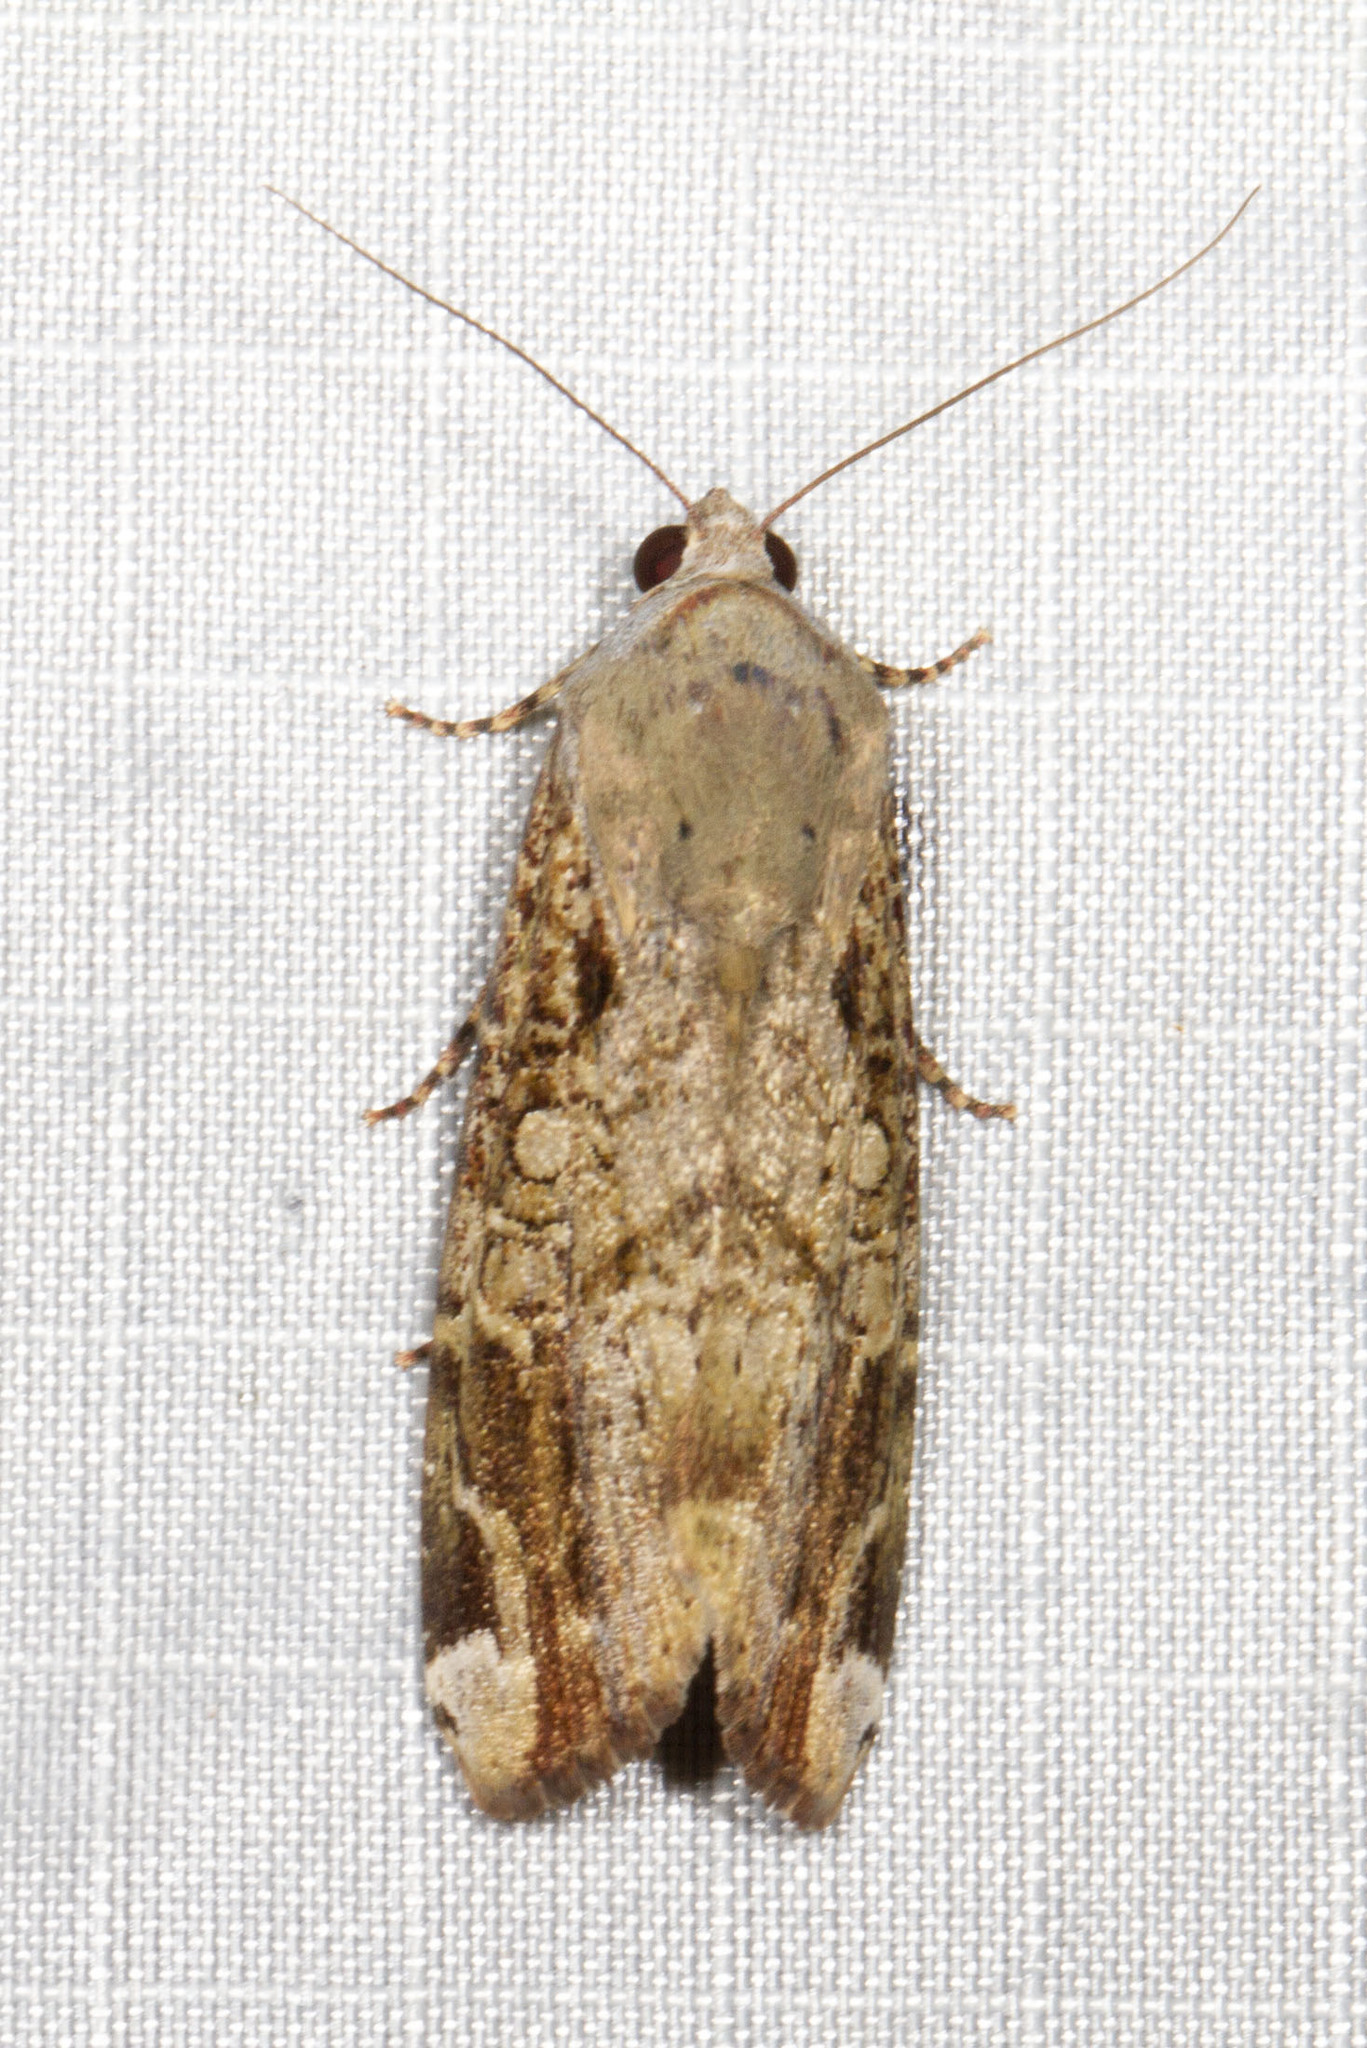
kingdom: Animalia
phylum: Arthropoda
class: Insecta
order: Lepidoptera
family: Noctuidae
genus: Magusa
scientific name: Magusa divaricata
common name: Orb narrow-winged moth
